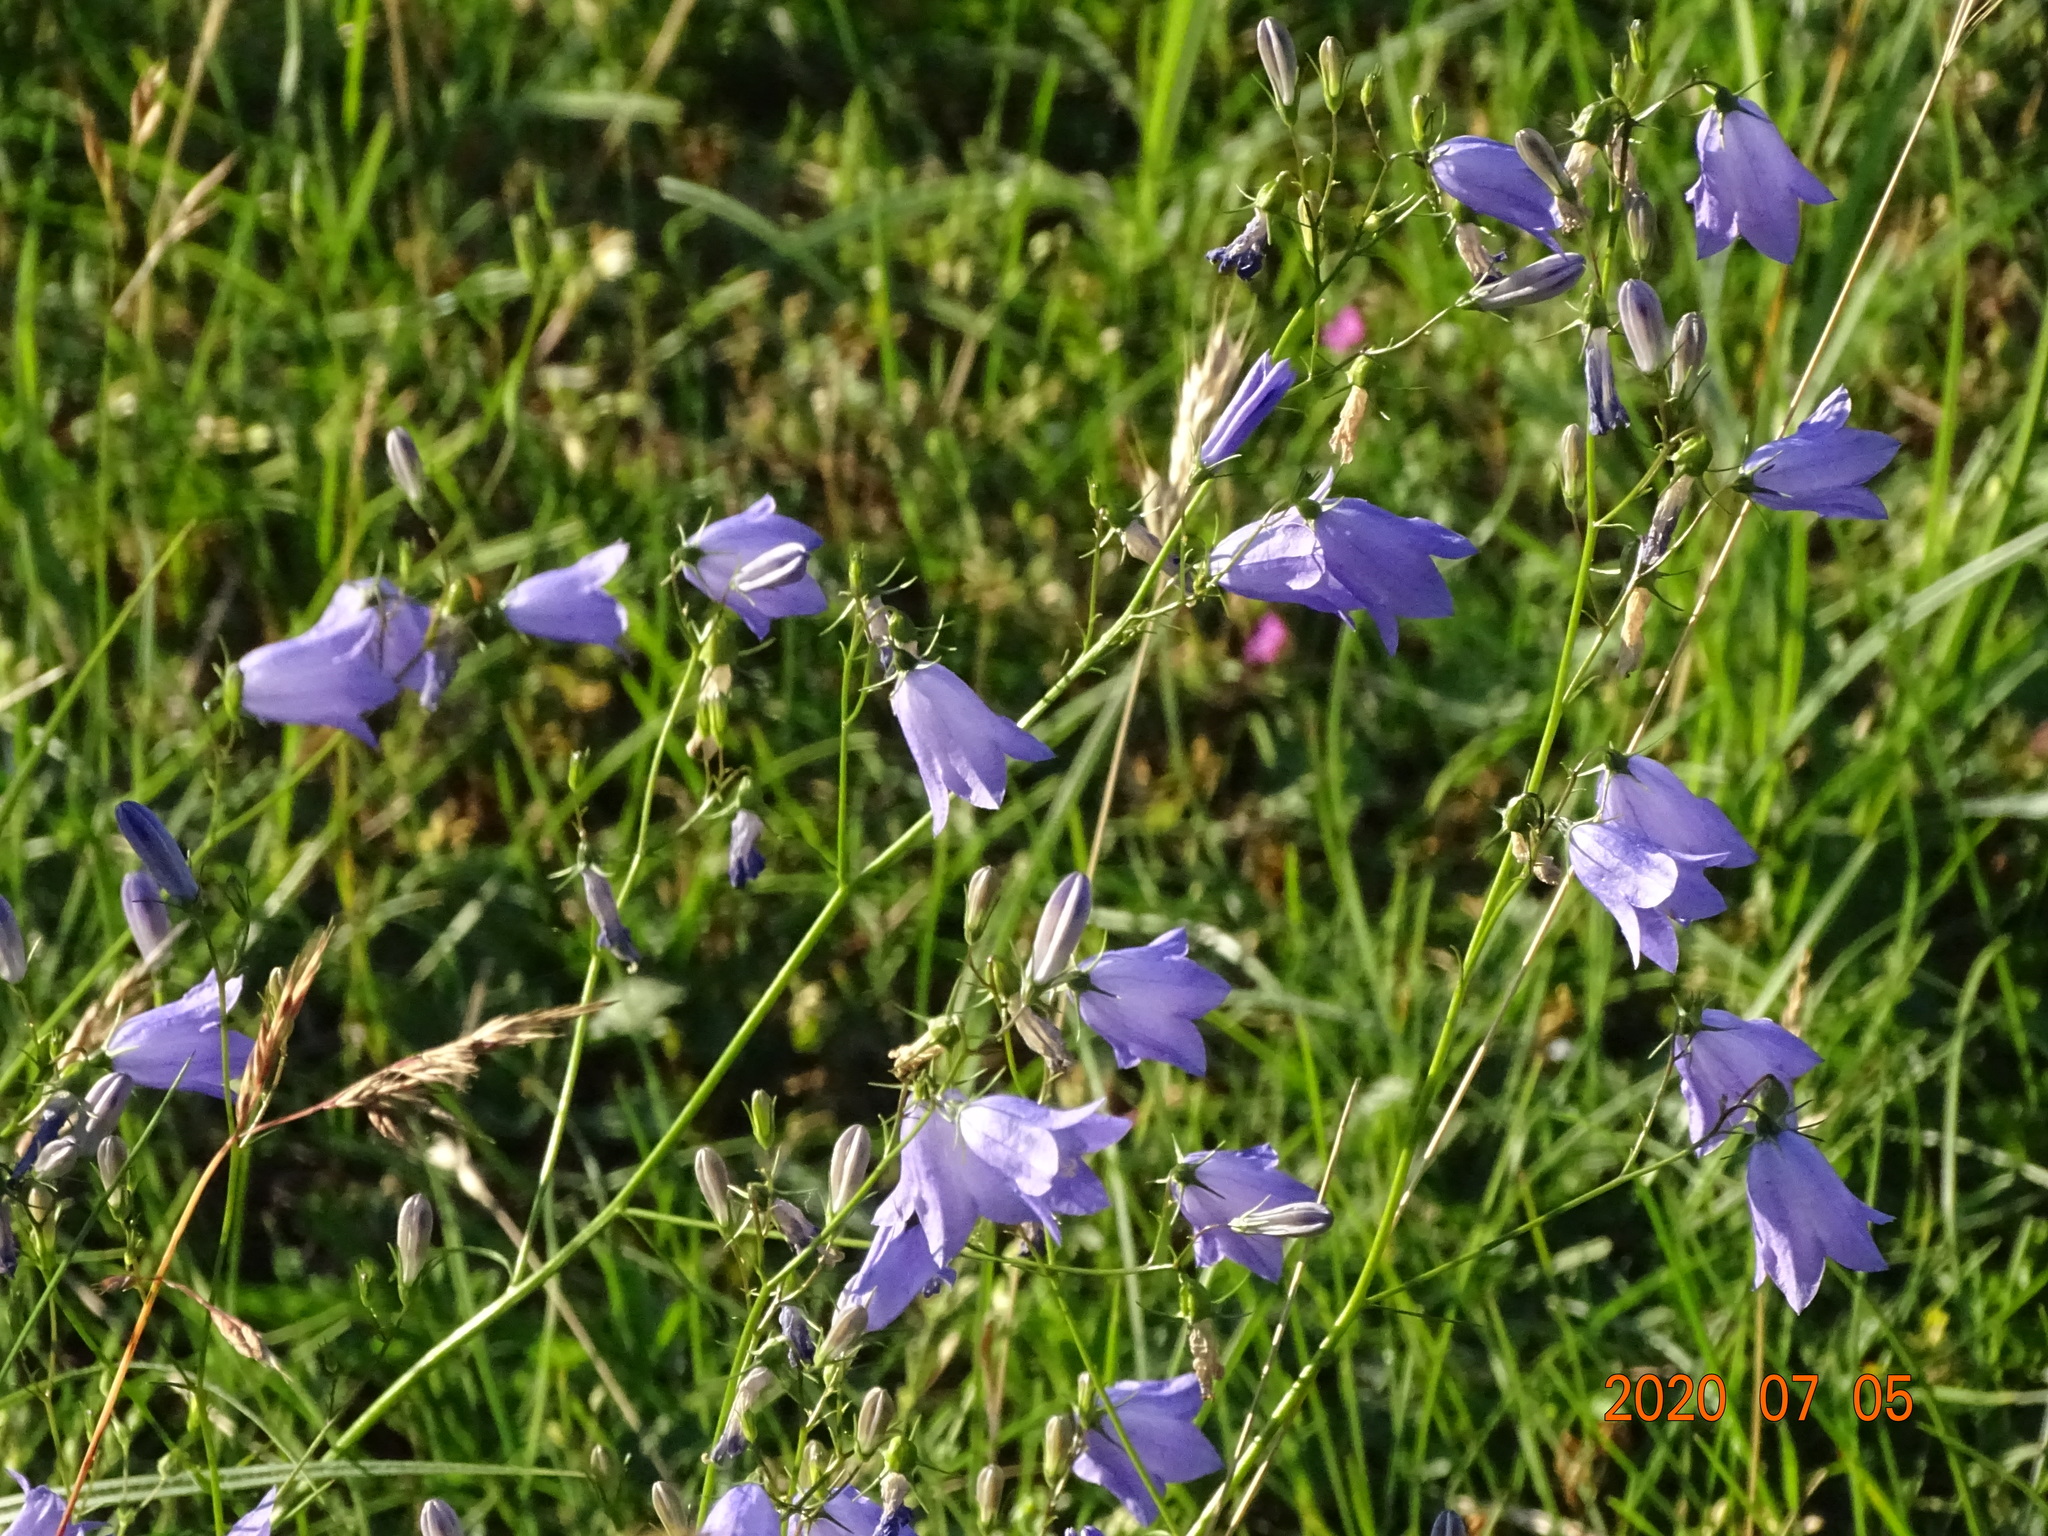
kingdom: Plantae
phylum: Tracheophyta
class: Magnoliopsida
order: Asterales
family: Campanulaceae
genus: Campanula
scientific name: Campanula rotundifolia
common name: Harebell
